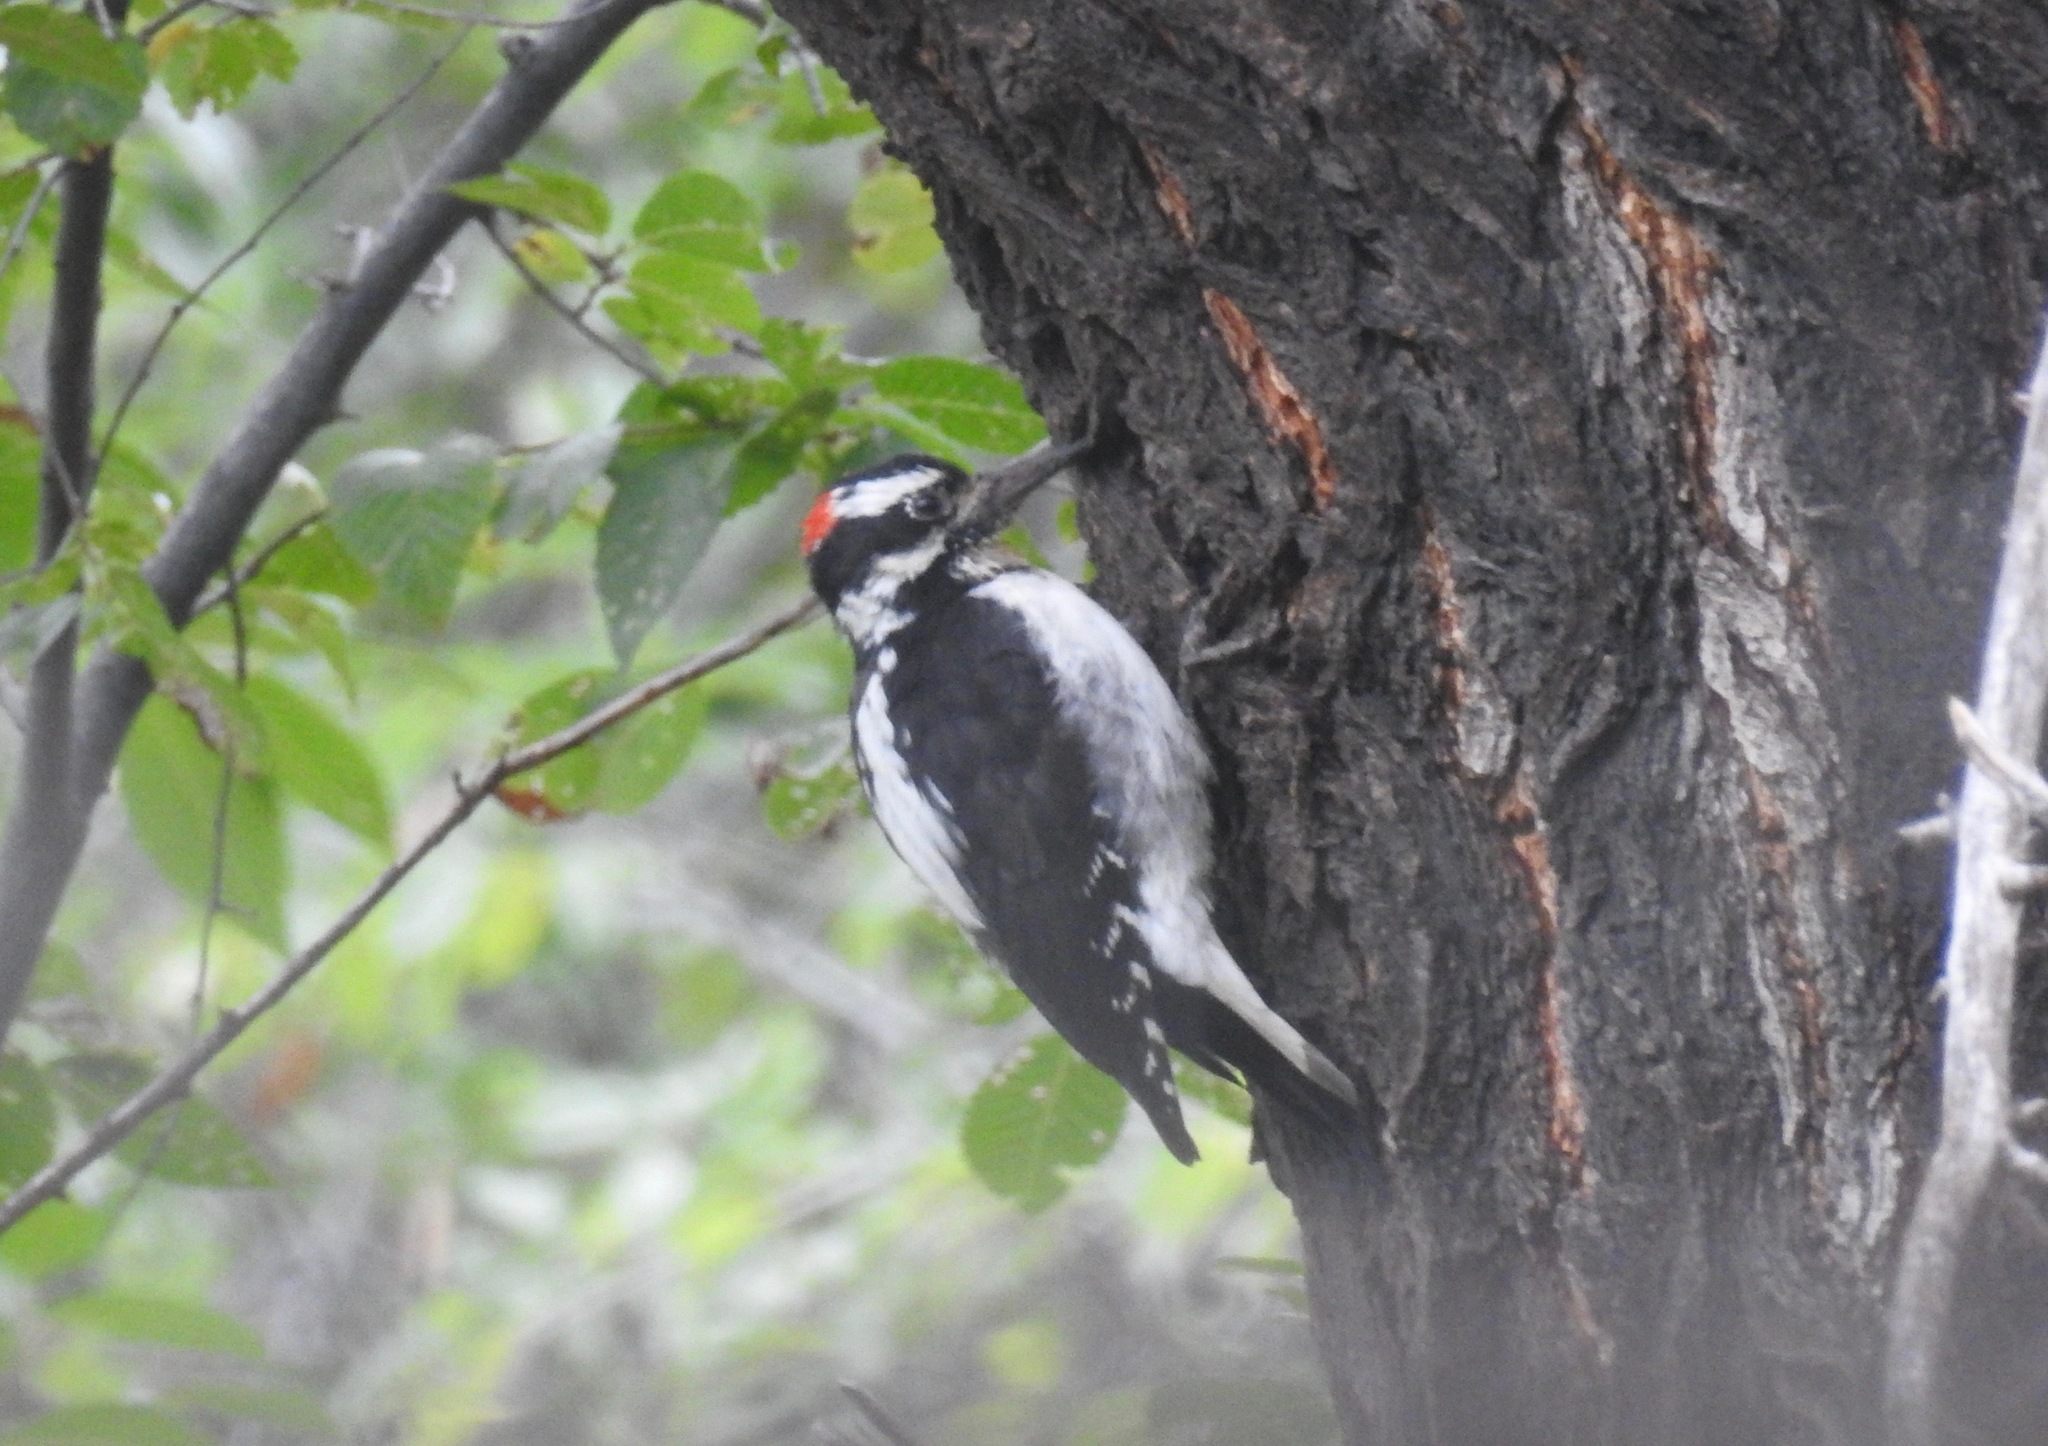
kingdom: Animalia
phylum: Chordata
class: Aves
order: Piciformes
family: Picidae
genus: Leuconotopicus
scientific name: Leuconotopicus villosus
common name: Hairy woodpecker
